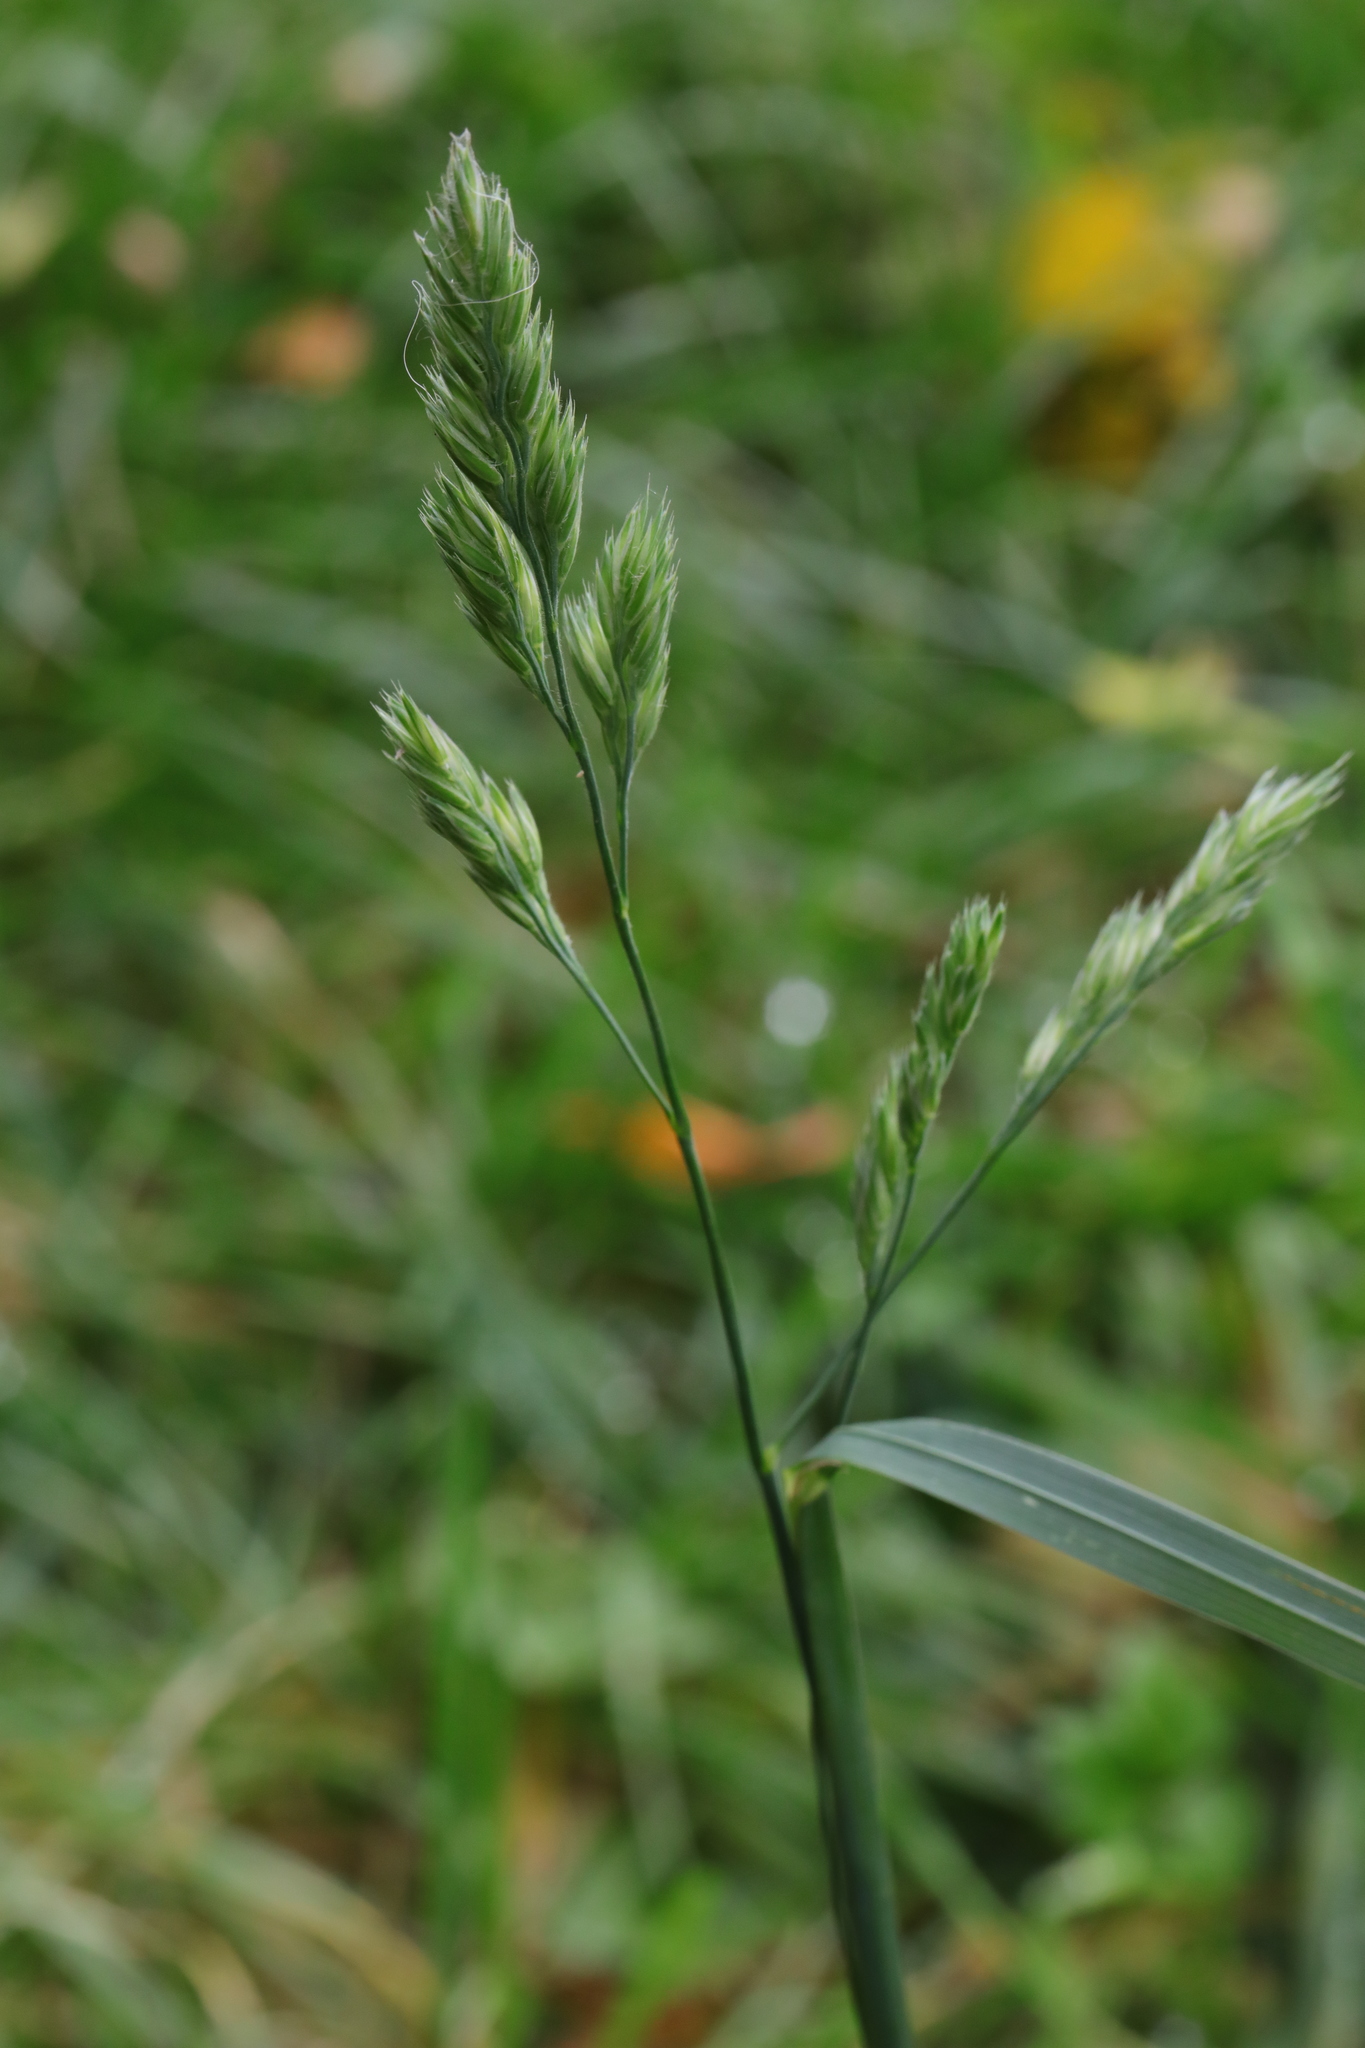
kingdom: Plantae
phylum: Tracheophyta
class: Liliopsida
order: Poales
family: Poaceae
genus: Dactylis
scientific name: Dactylis glomerata
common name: Orchardgrass
